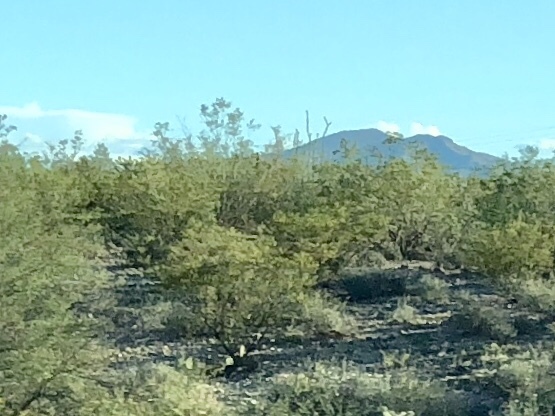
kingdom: Plantae
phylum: Tracheophyta
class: Magnoliopsida
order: Zygophyllales
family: Zygophyllaceae
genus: Larrea
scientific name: Larrea tridentata
